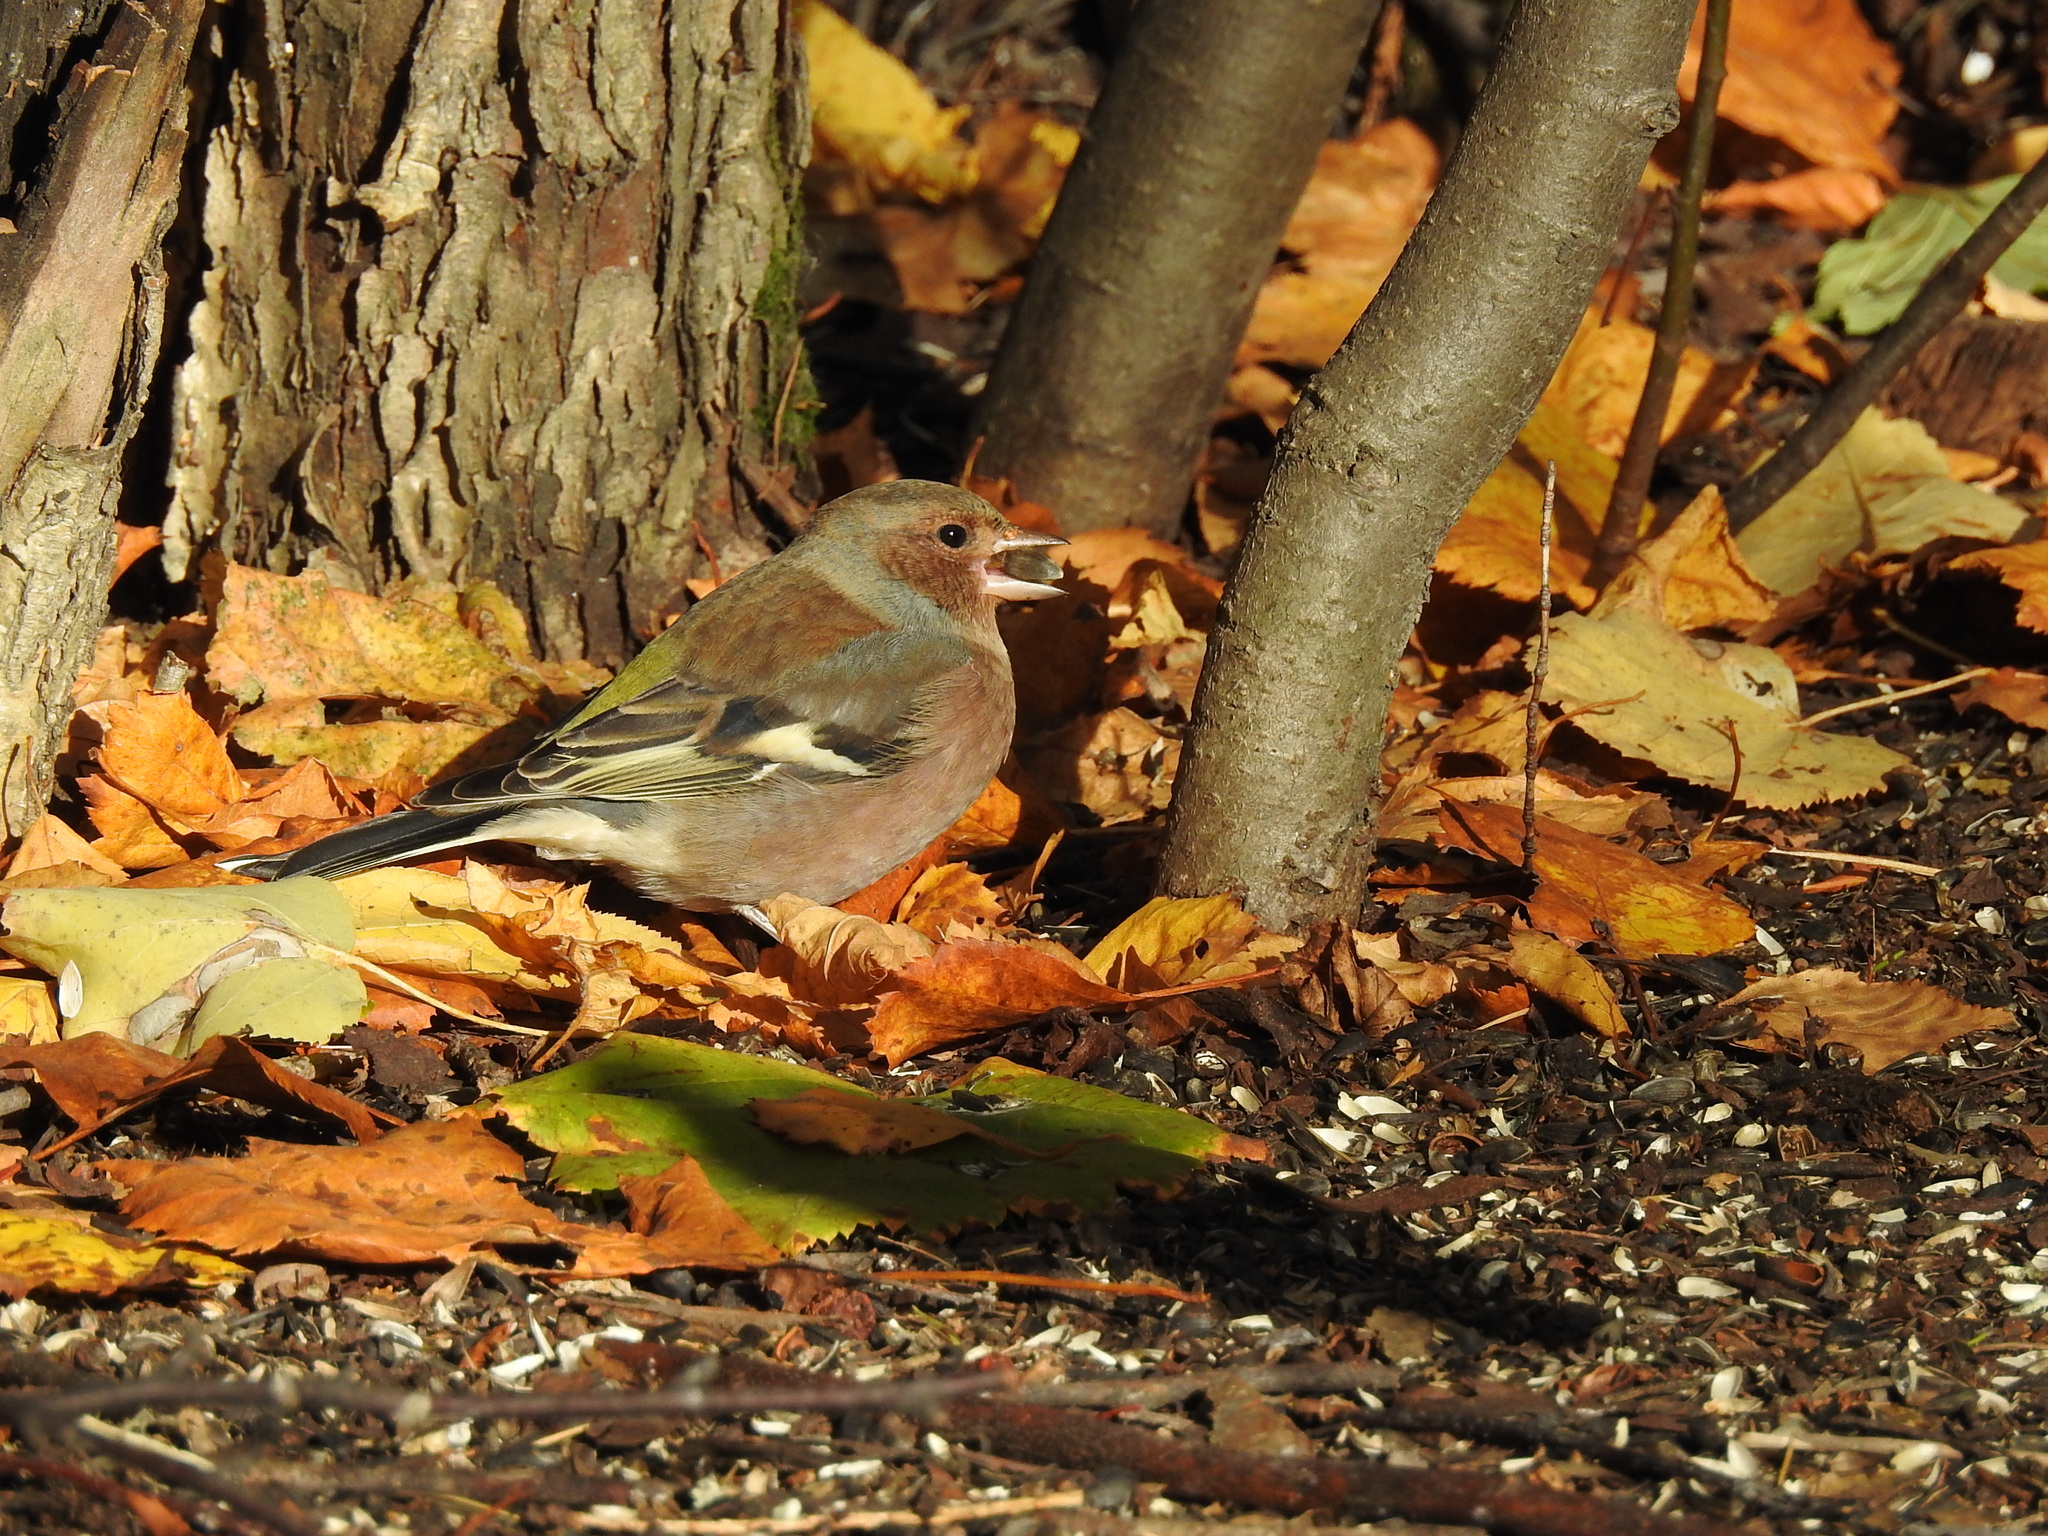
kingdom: Animalia
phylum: Chordata
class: Aves
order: Passeriformes
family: Fringillidae
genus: Fringilla
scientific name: Fringilla coelebs
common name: Common chaffinch
